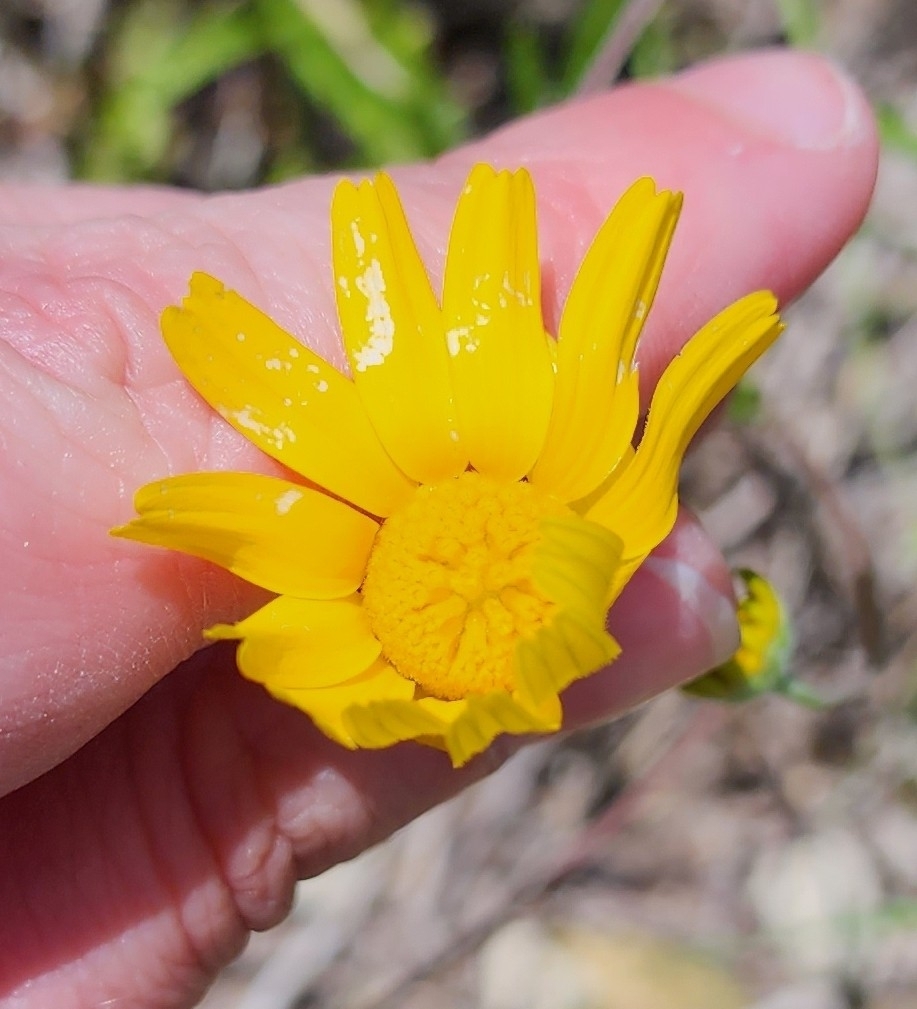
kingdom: Plantae
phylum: Tracheophyta
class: Magnoliopsida
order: Asterales
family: Asteraceae
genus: Tetraneuris
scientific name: Tetraneuris linearifolia
